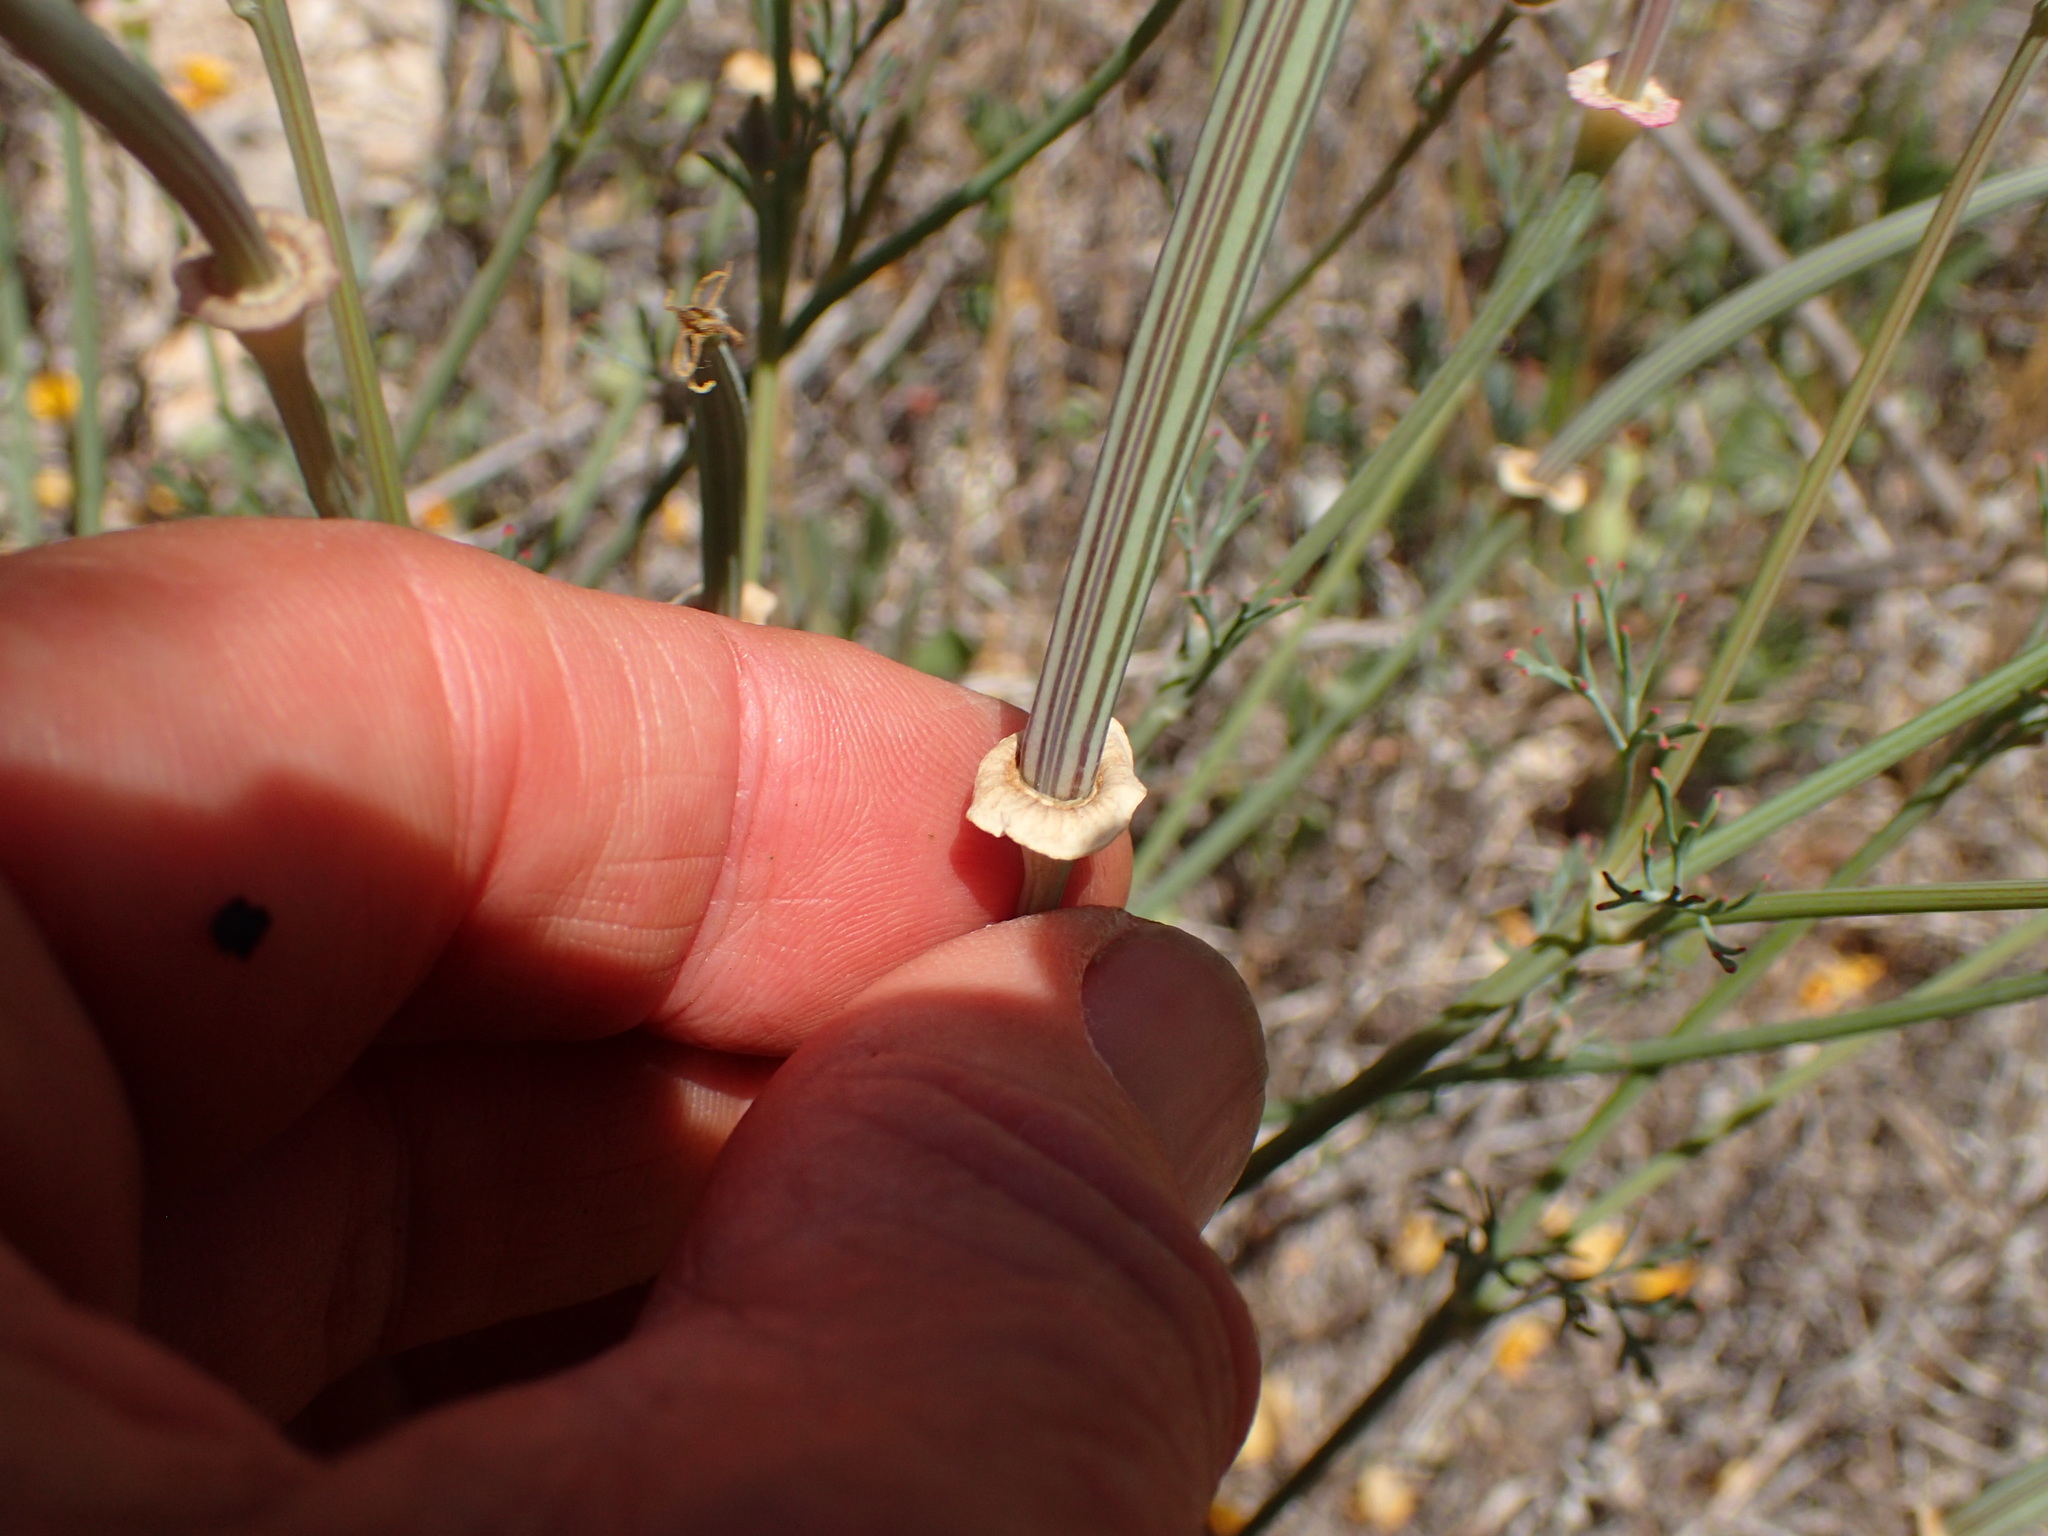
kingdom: Plantae
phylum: Tracheophyta
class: Magnoliopsida
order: Ranunculales
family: Papaveraceae
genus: Eschscholzia
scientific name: Eschscholzia californica
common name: California poppy
